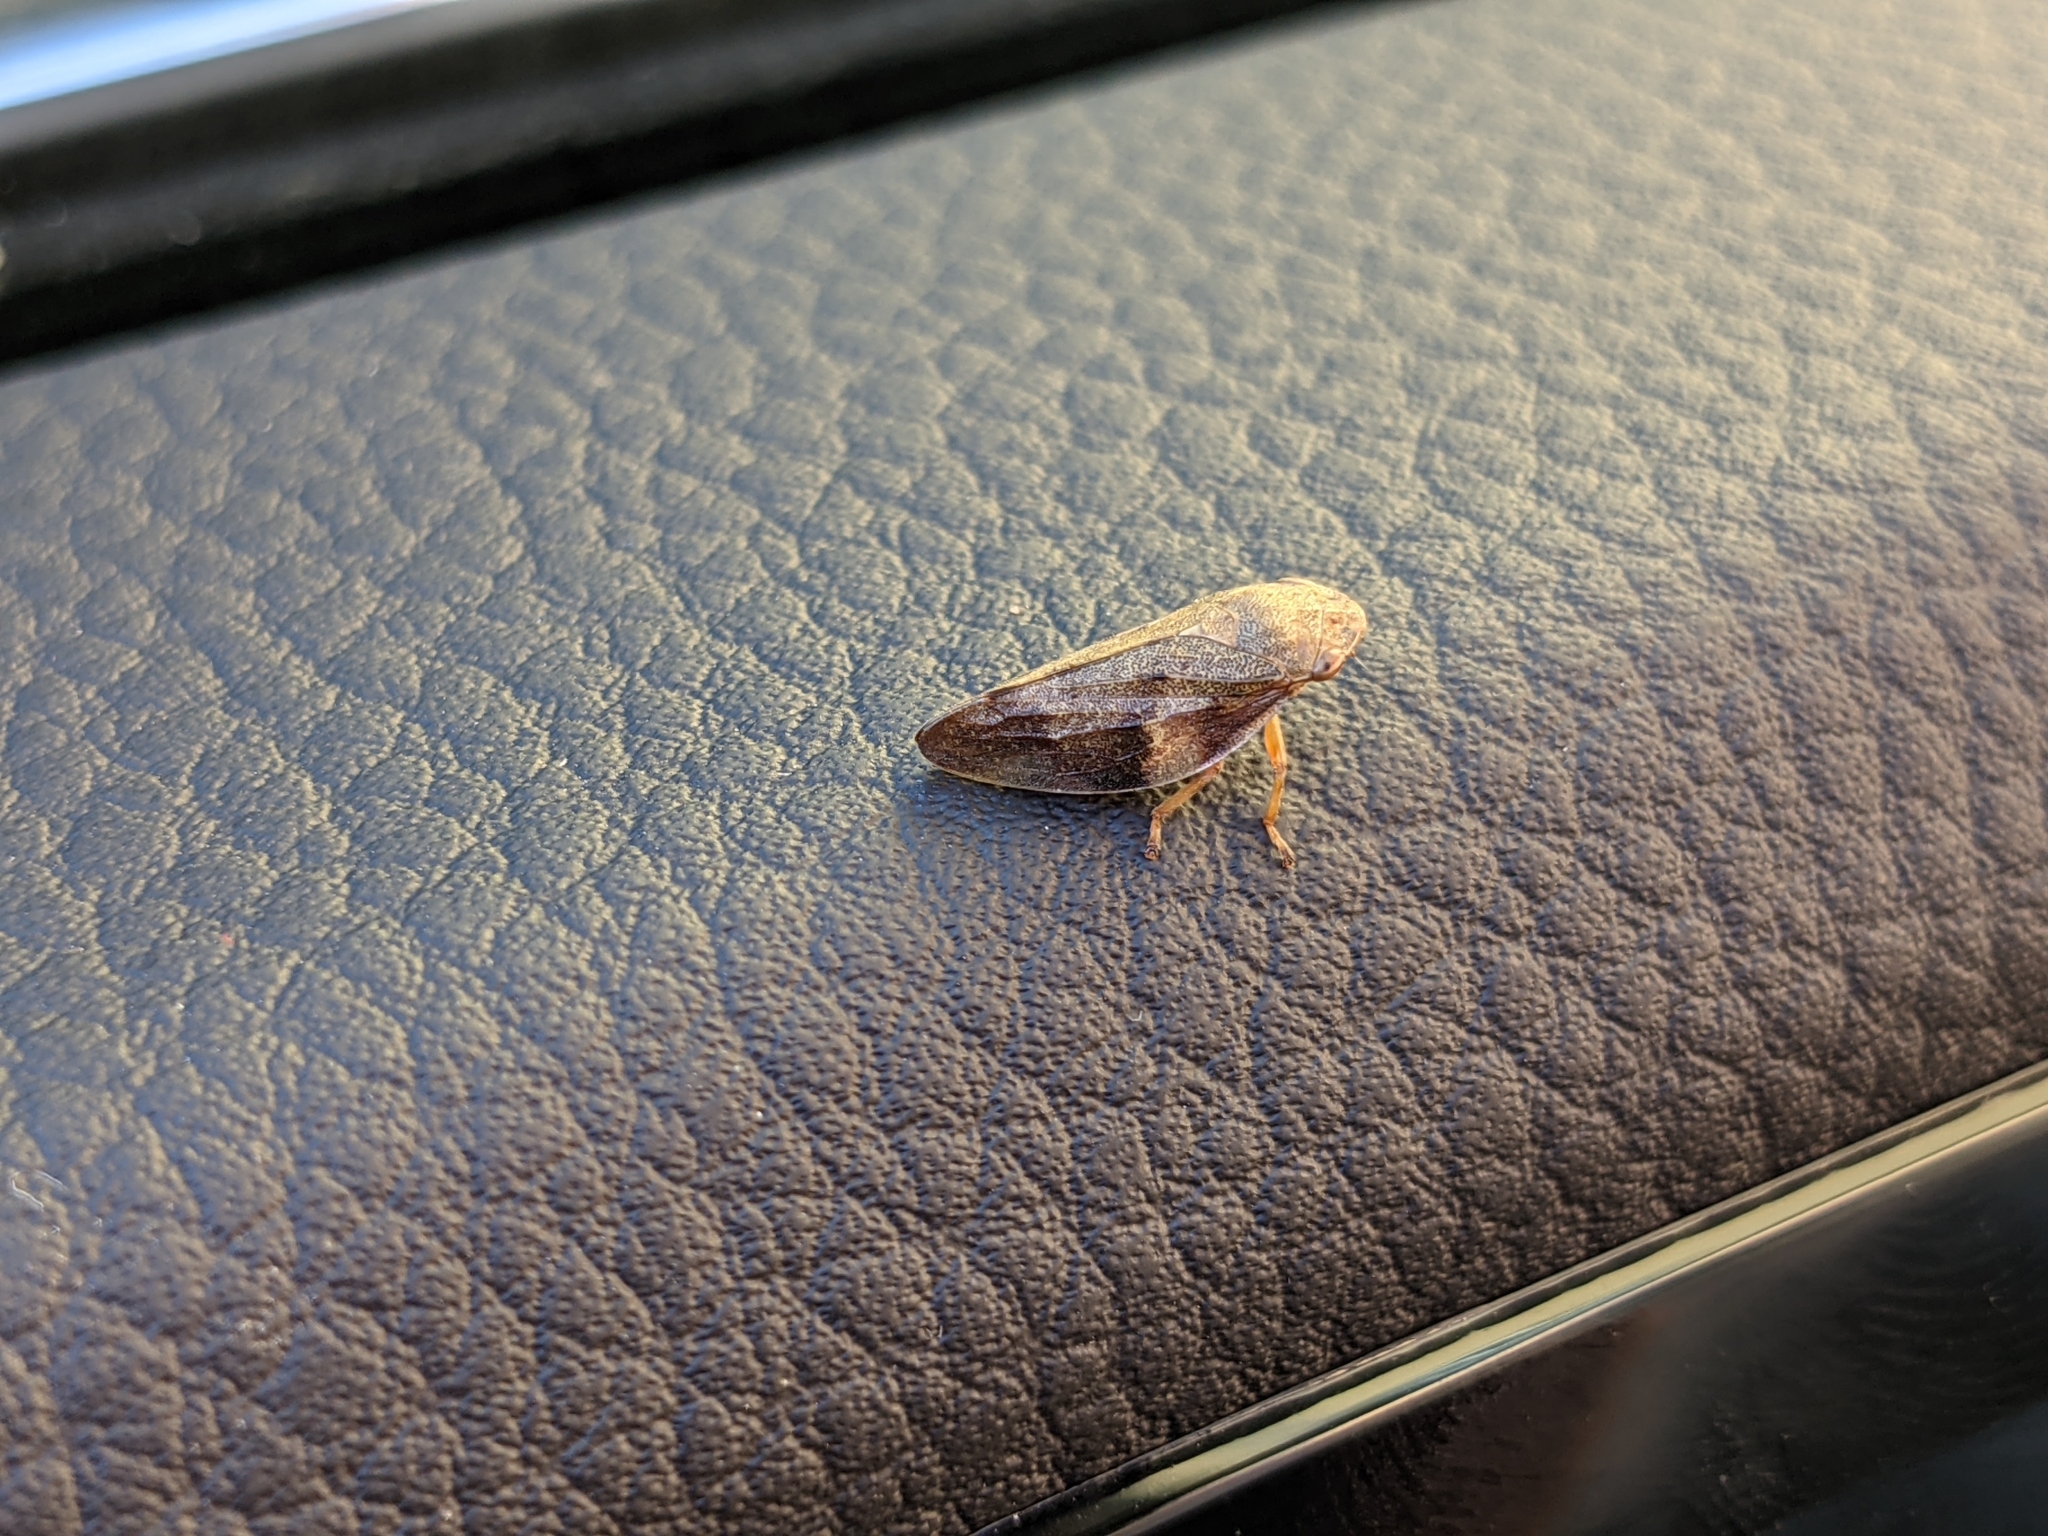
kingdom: Animalia
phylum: Arthropoda
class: Insecta
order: Hemiptera
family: Aphrophoridae
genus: Aphrophora
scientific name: Aphrophora alni
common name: European alder spittlebug
